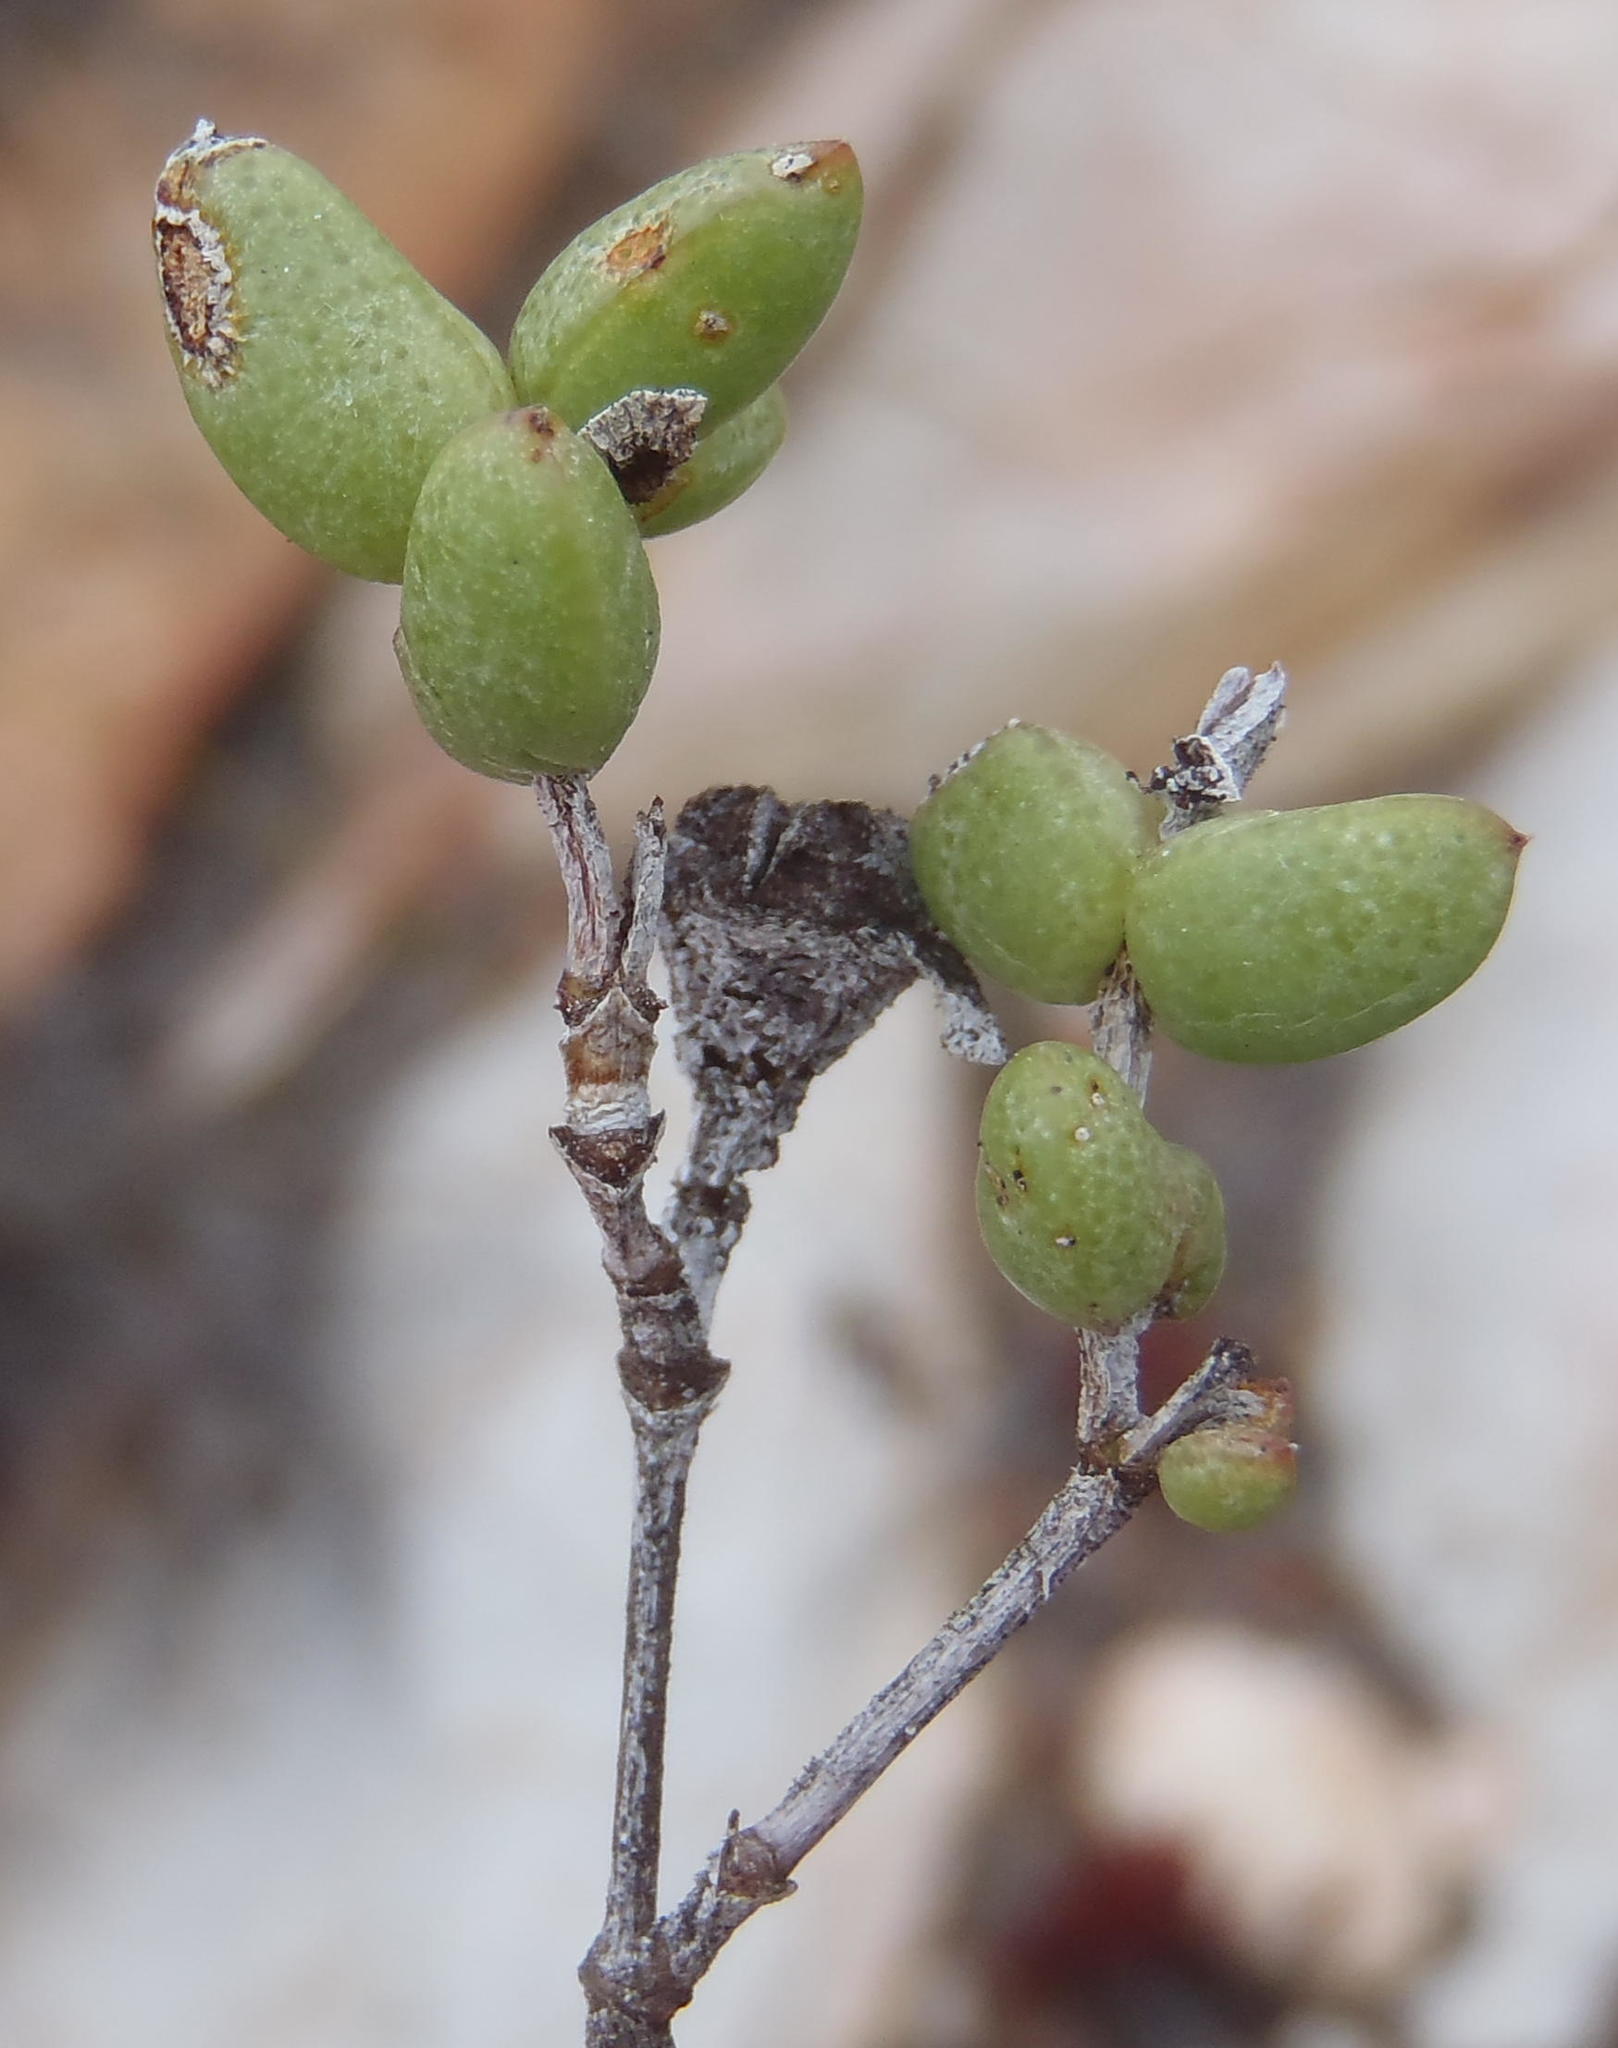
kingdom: Plantae
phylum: Tracheophyta
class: Magnoliopsida
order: Caryophyllales
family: Aizoaceae
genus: Ruschia
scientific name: Ruschia virgata
